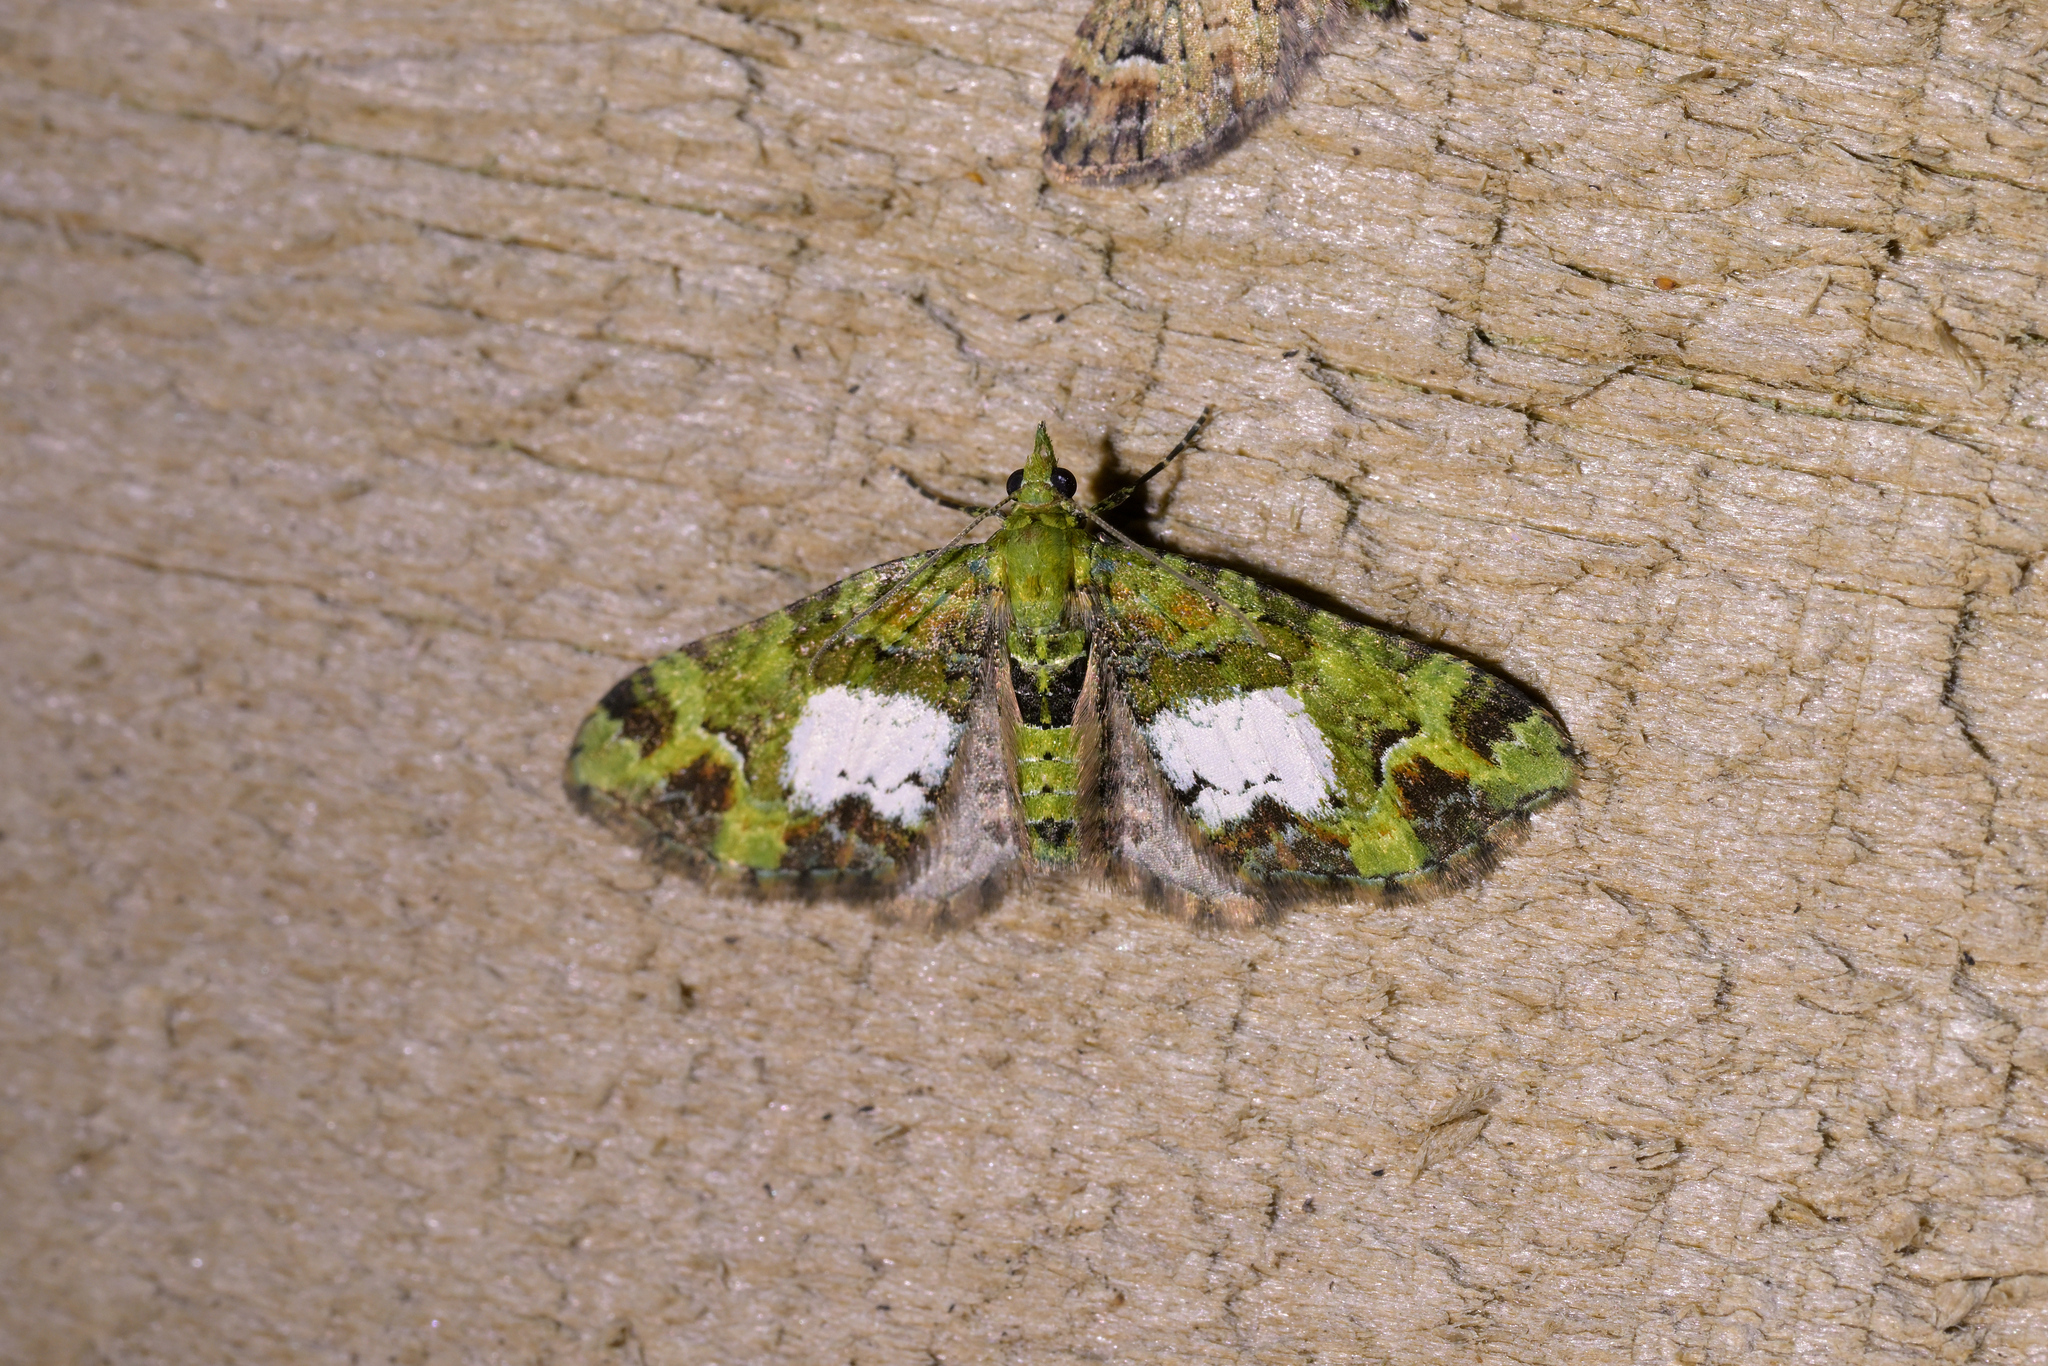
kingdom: Animalia
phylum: Arthropoda
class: Insecta
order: Lepidoptera
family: Geometridae
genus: Pasiphila
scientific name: Pasiphila malachita
